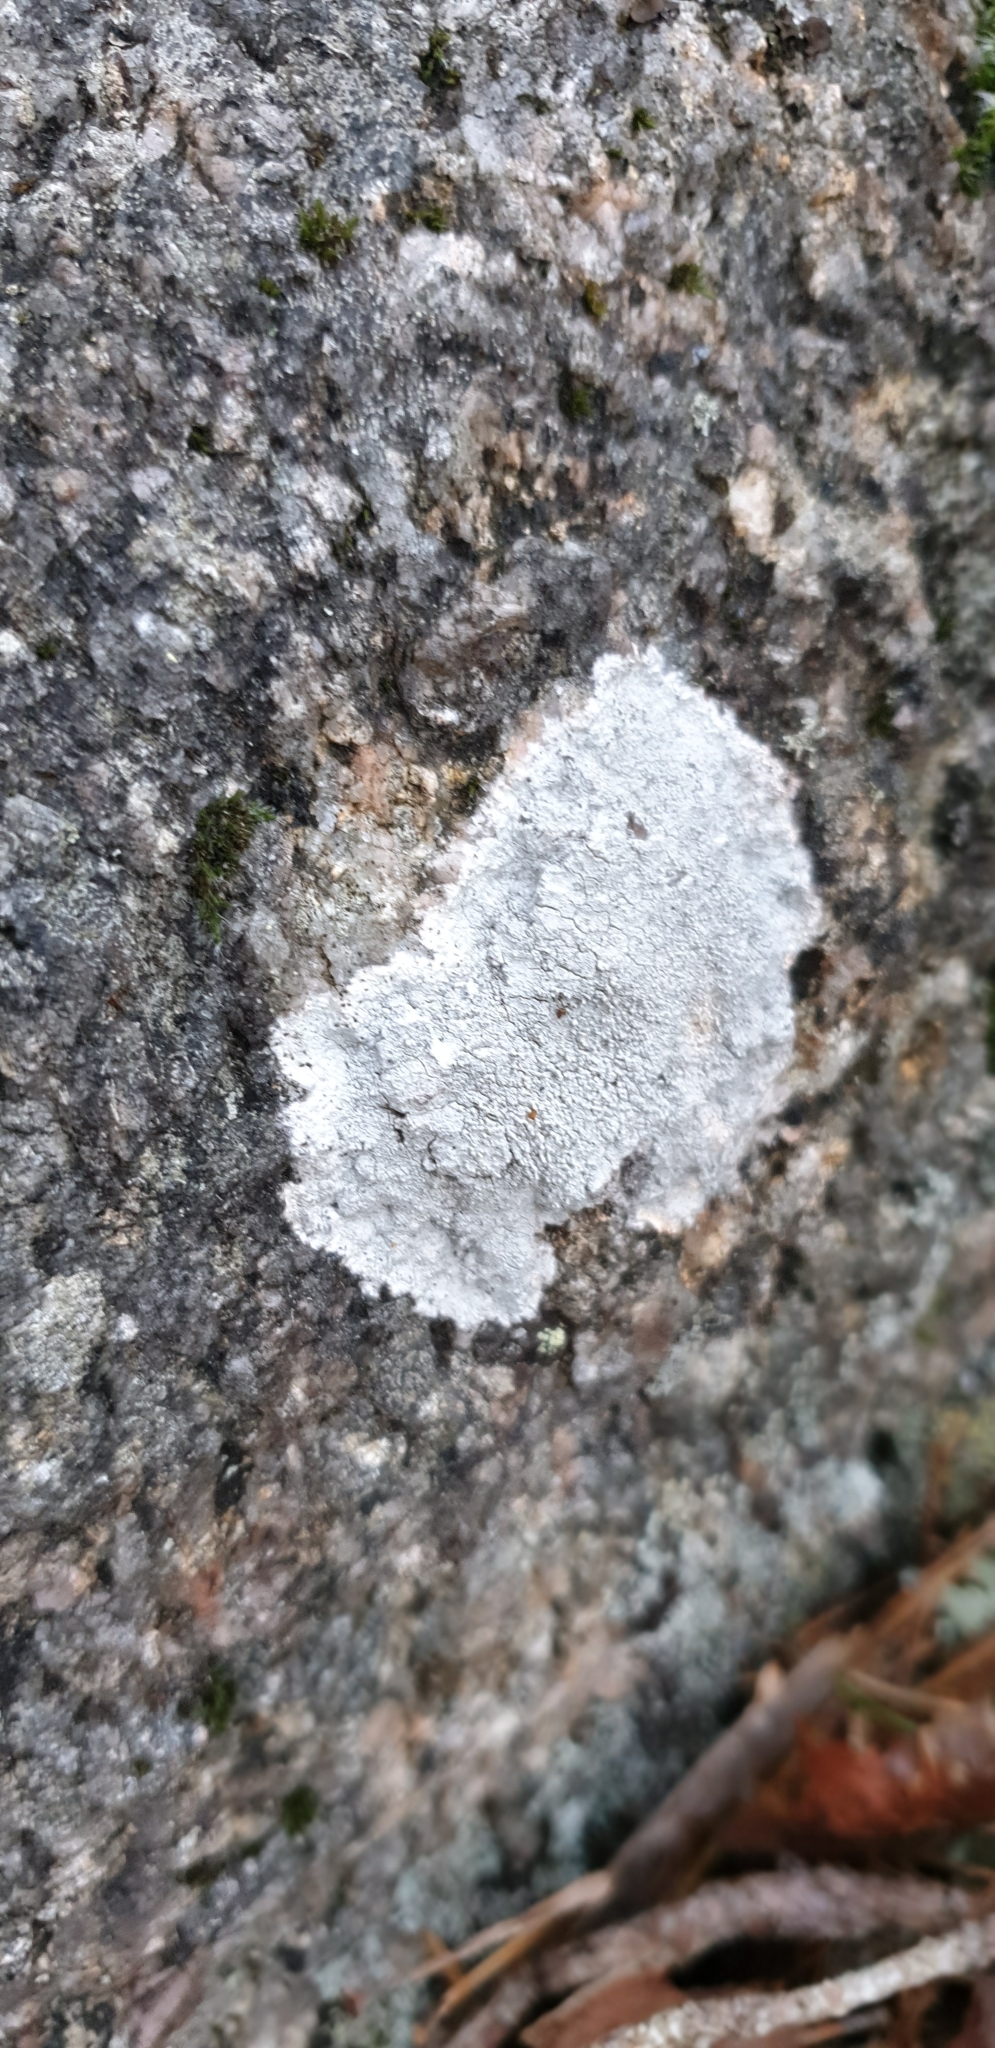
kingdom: Fungi
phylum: Ascomycota
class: Lecanoromycetes
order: Ostropales
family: Phlyctidaceae
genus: Phlyctis
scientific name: Phlyctis argena
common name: Whitewash lichen
